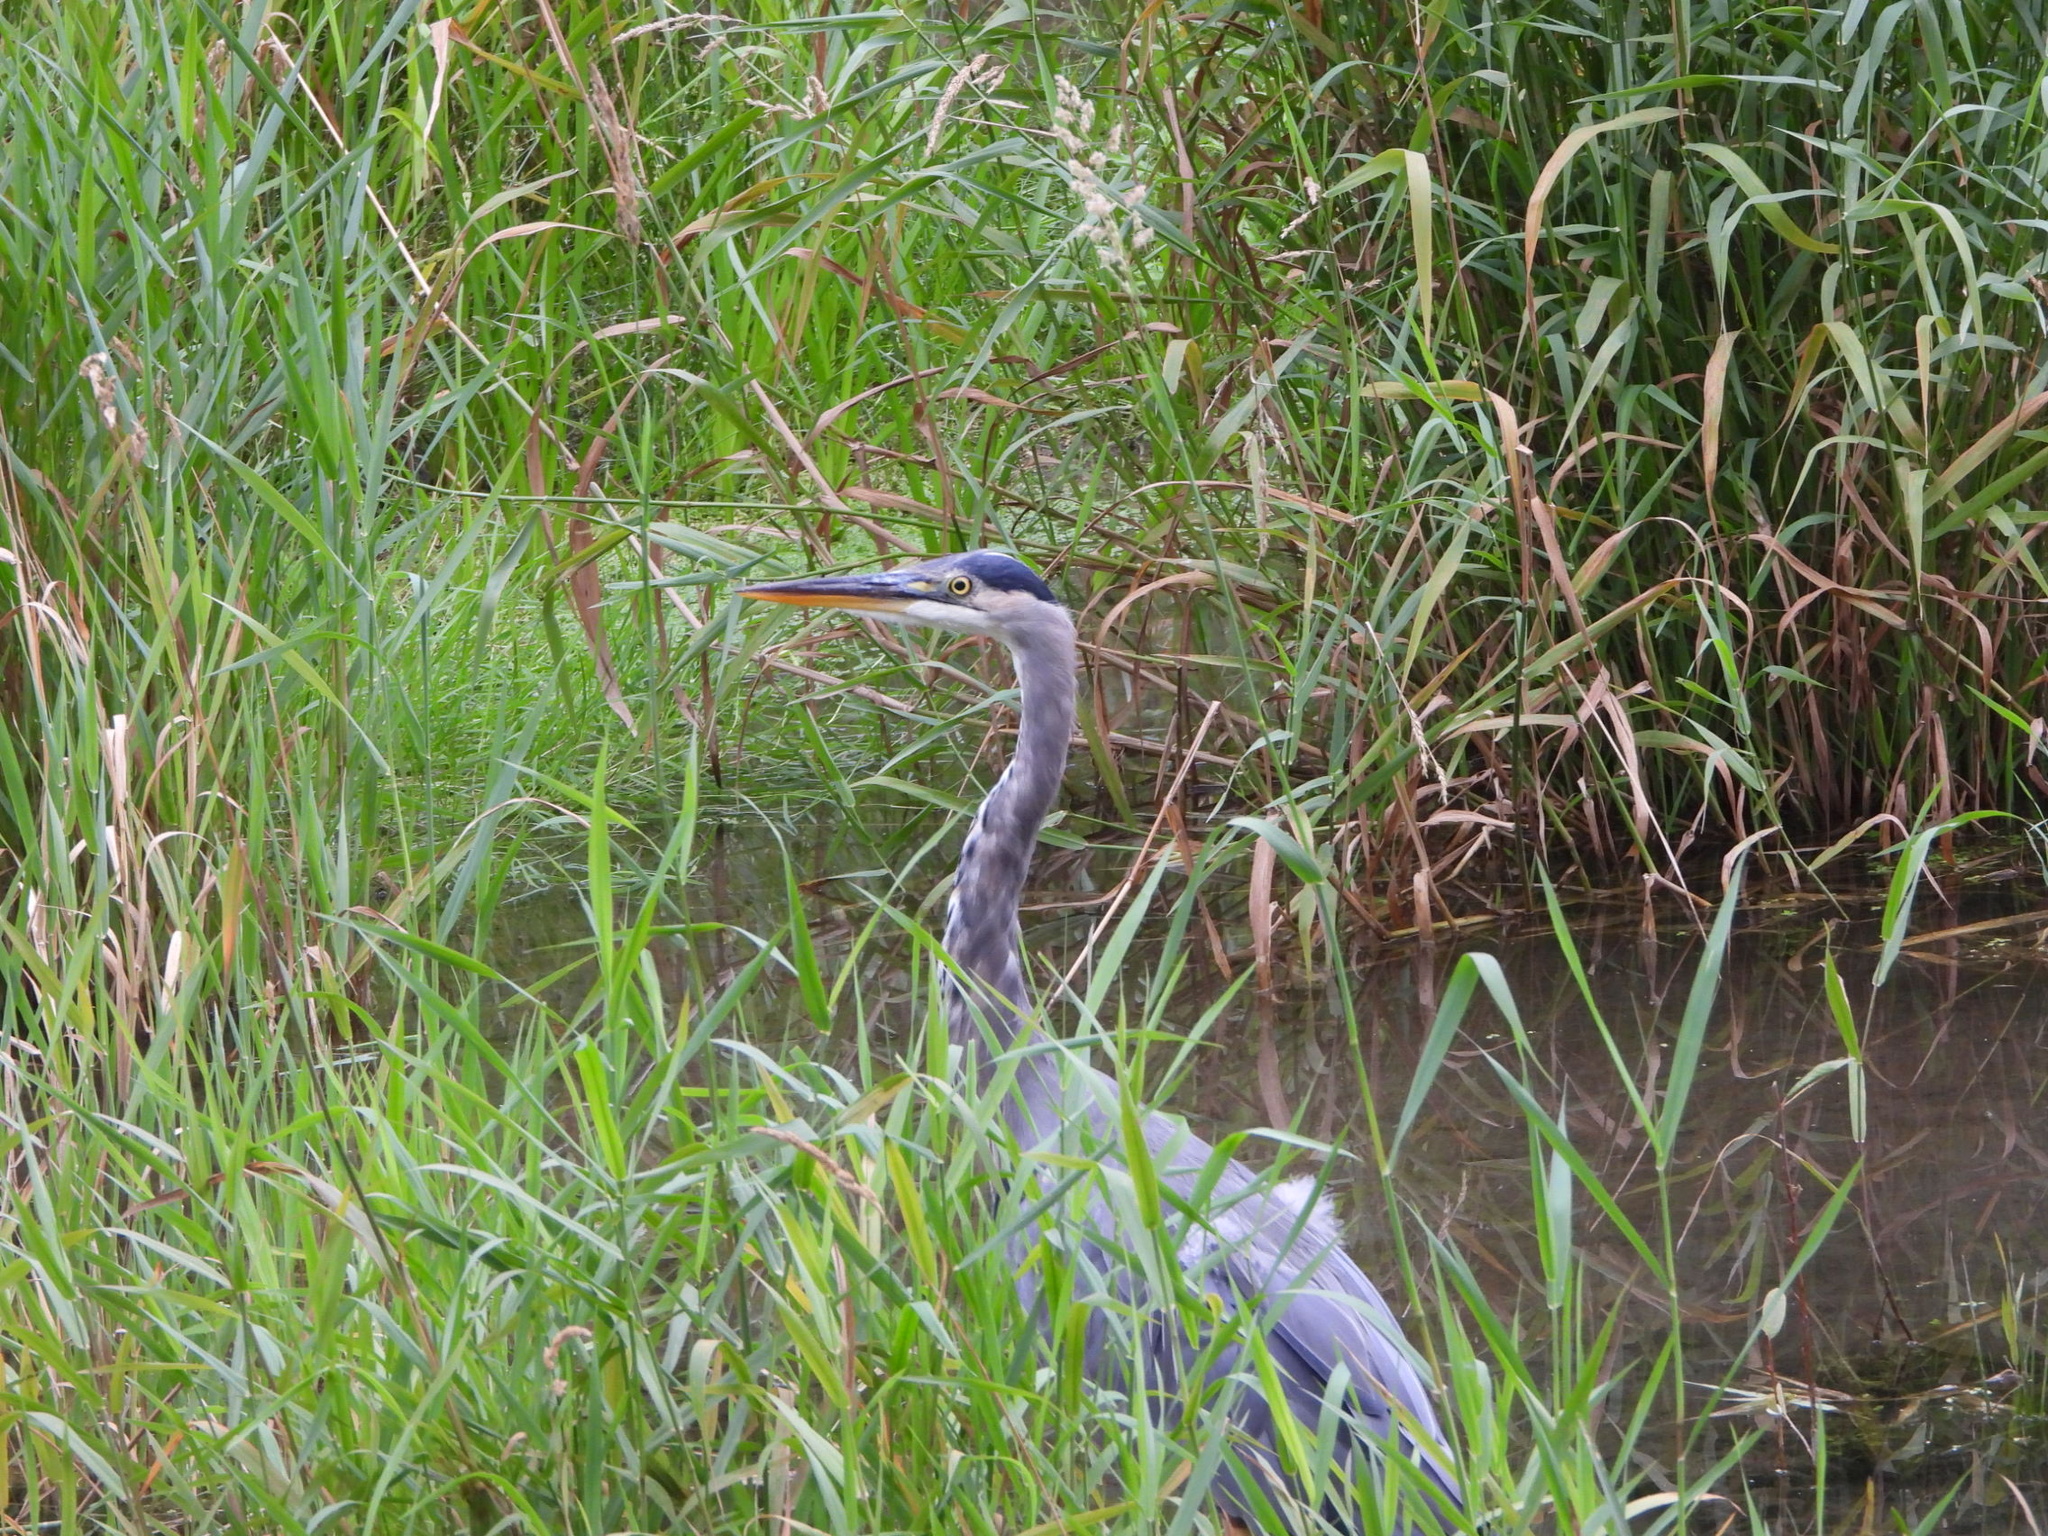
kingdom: Animalia
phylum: Chordata
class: Aves
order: Pelecaniformes
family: Ardeidae
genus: Ardea
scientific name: Ardea herodias
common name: Great blue heron
